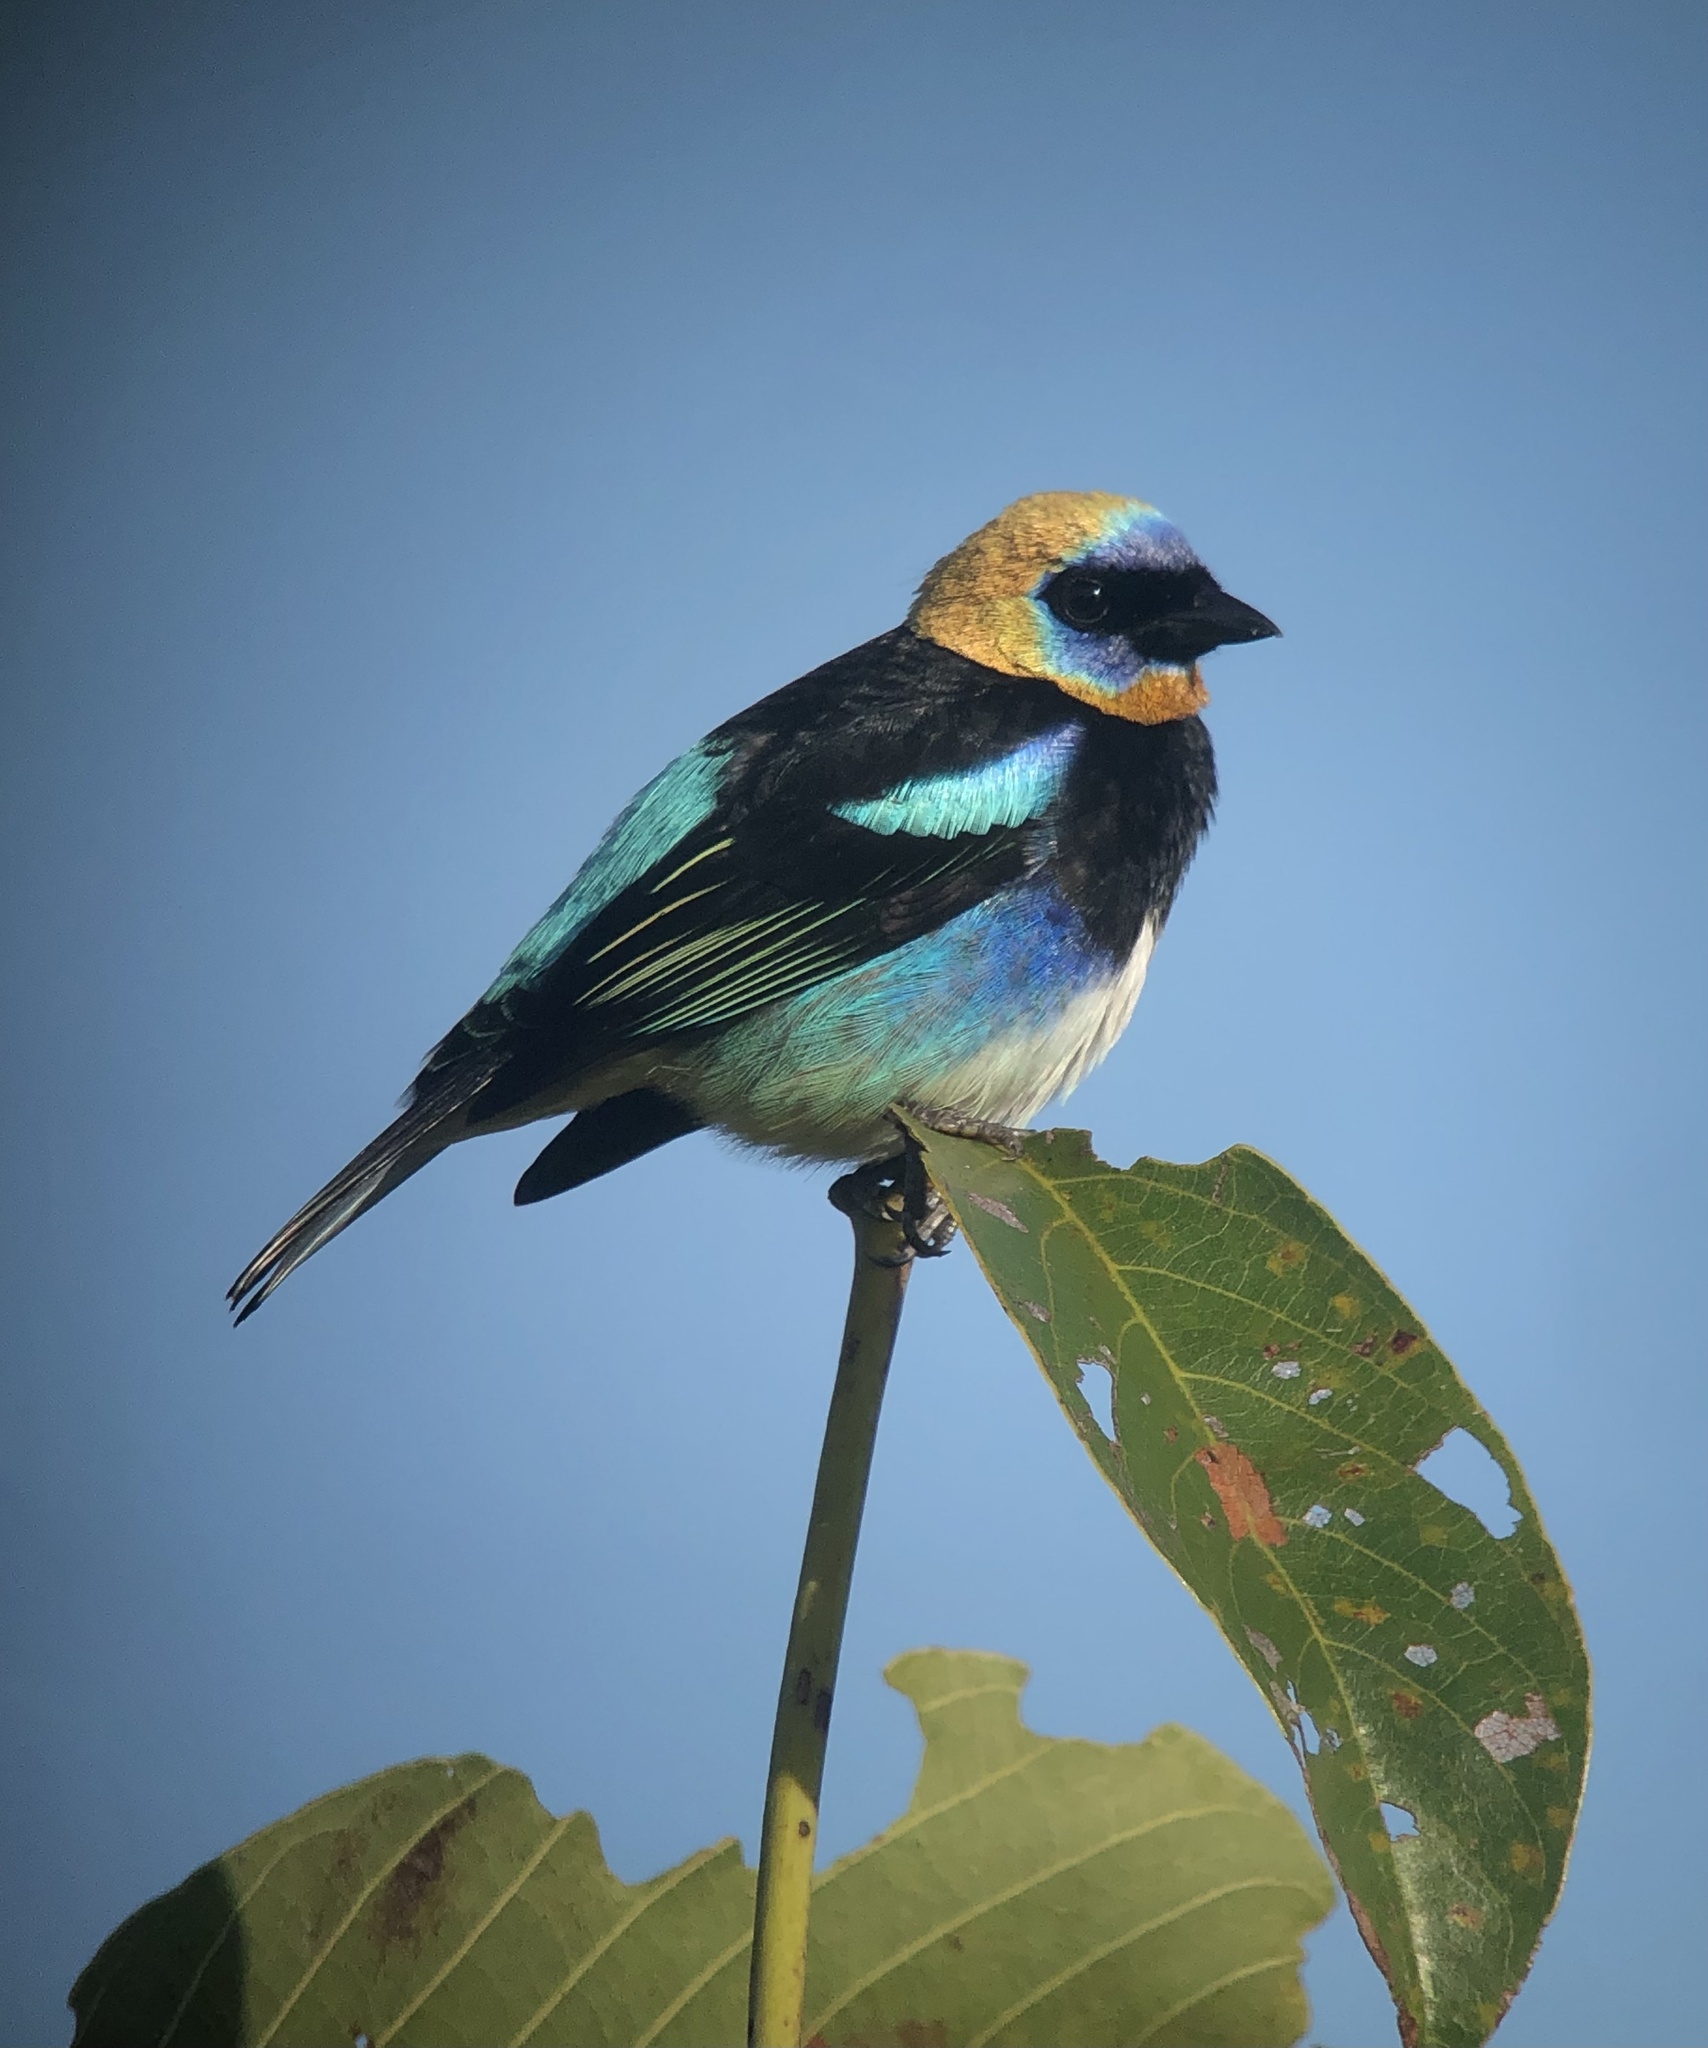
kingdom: Animalia
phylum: Chordata
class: Aves
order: Passeriformes
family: Thraupidae
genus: Stilpnia
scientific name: Stilpnia larvata
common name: Golden-hooded tanager
